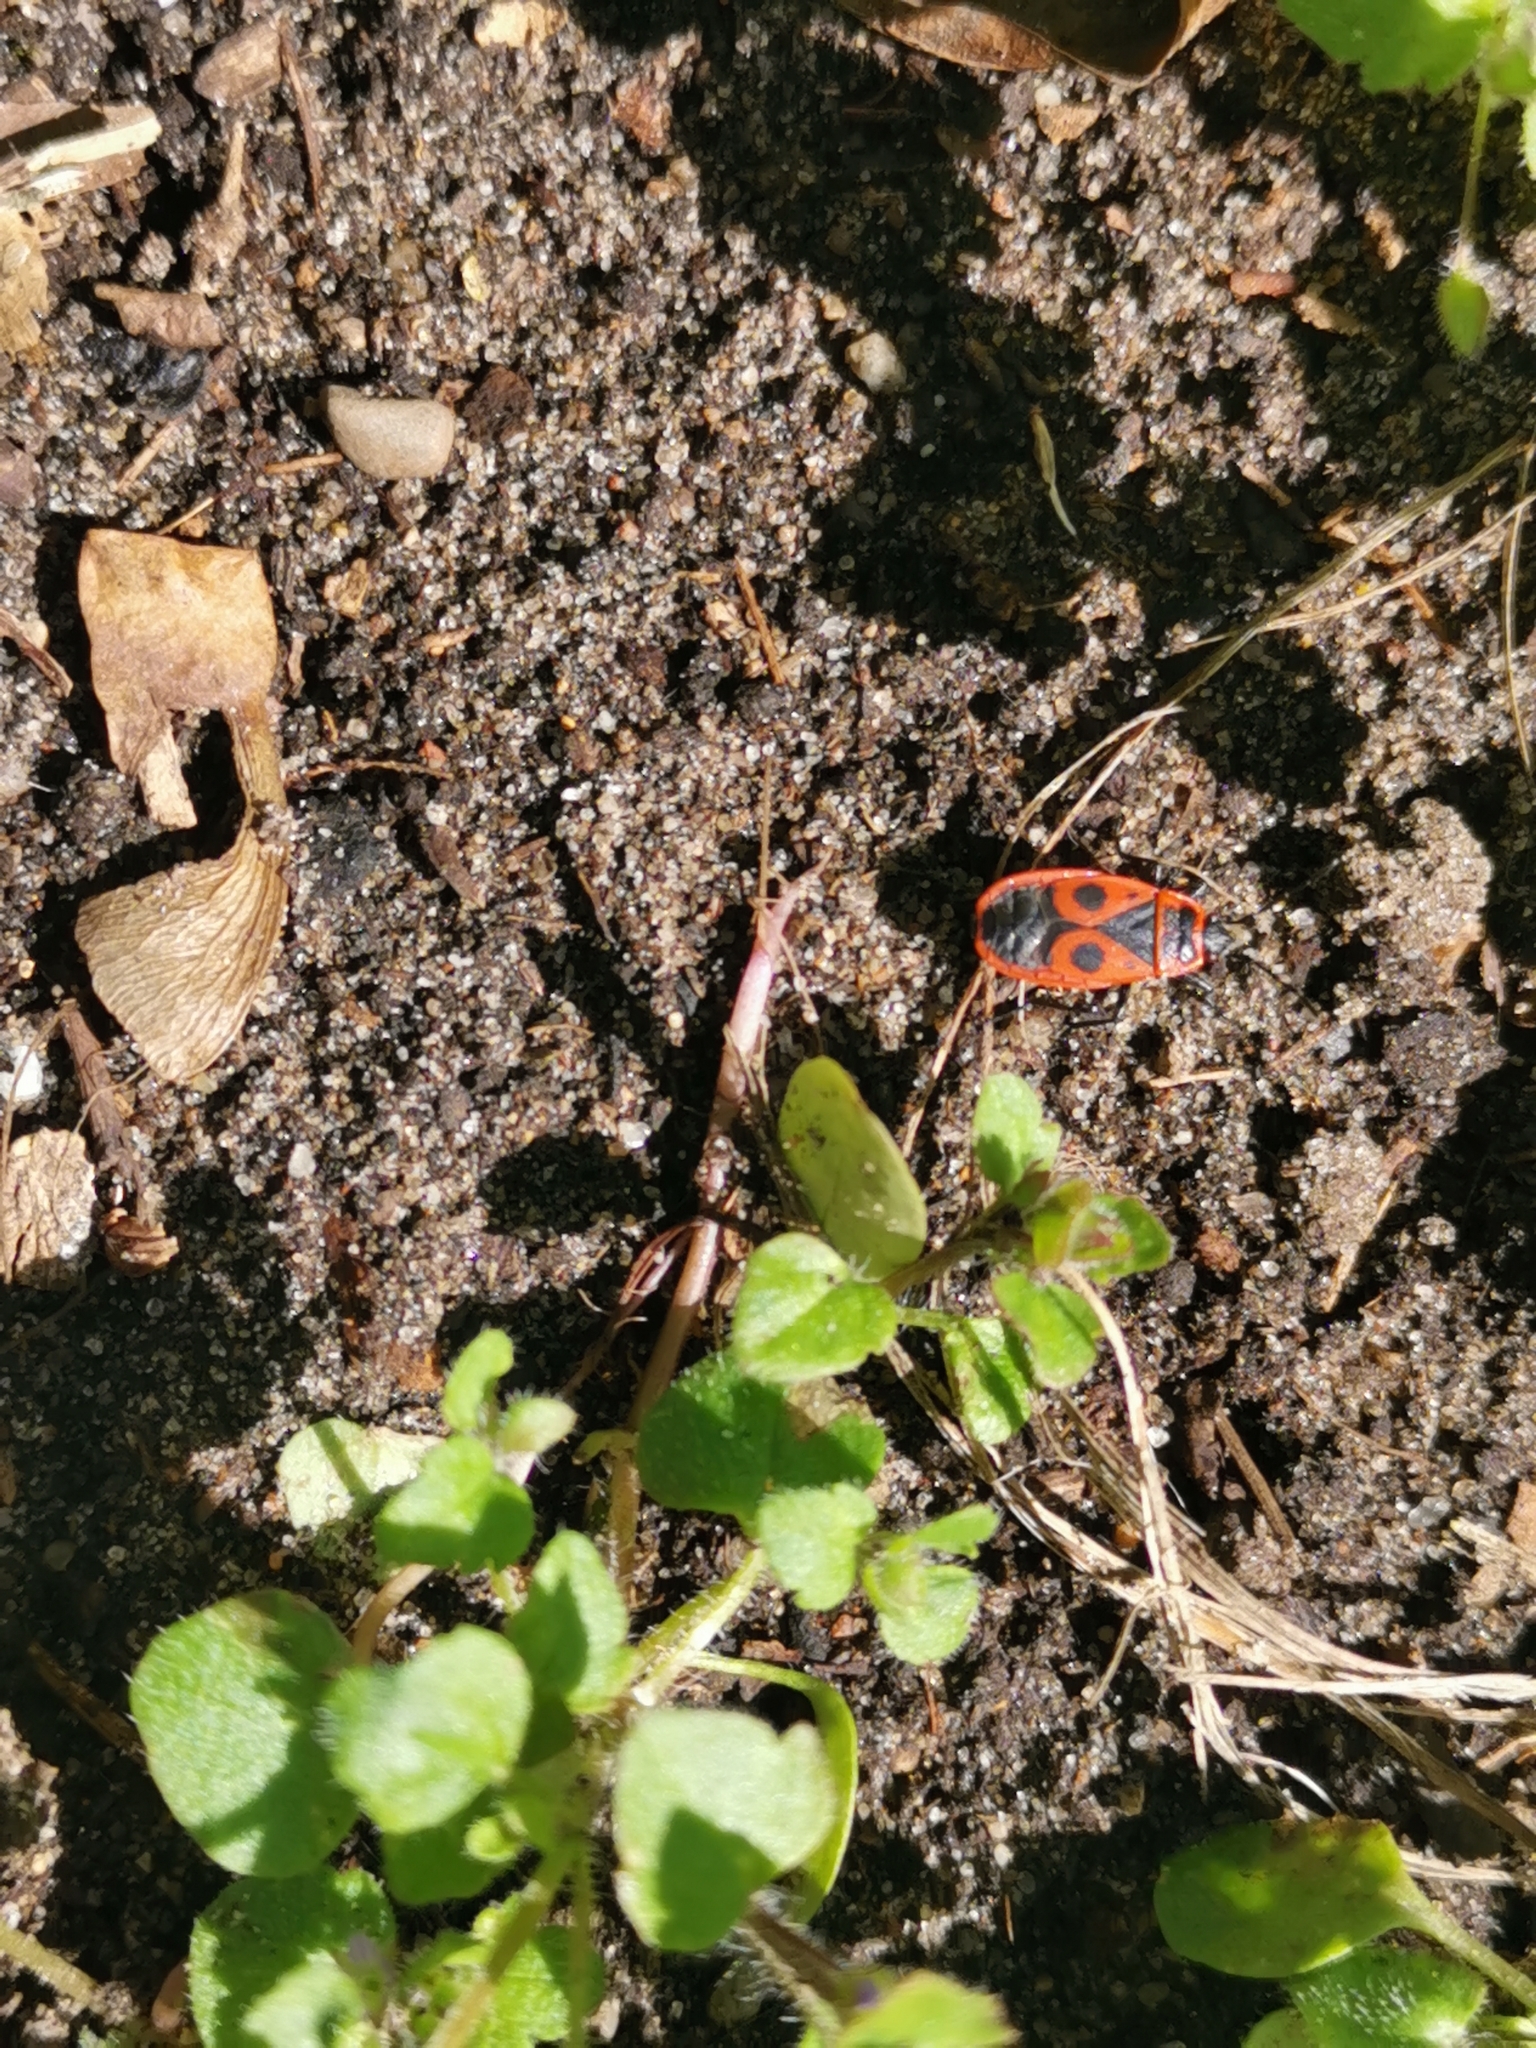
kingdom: Animalia
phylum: Arthropoda
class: Insecta
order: Hemiptera
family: Pyrrhocoridae
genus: Pyrrhocoris
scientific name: Pyrrhocoris apterus
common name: Firebug
